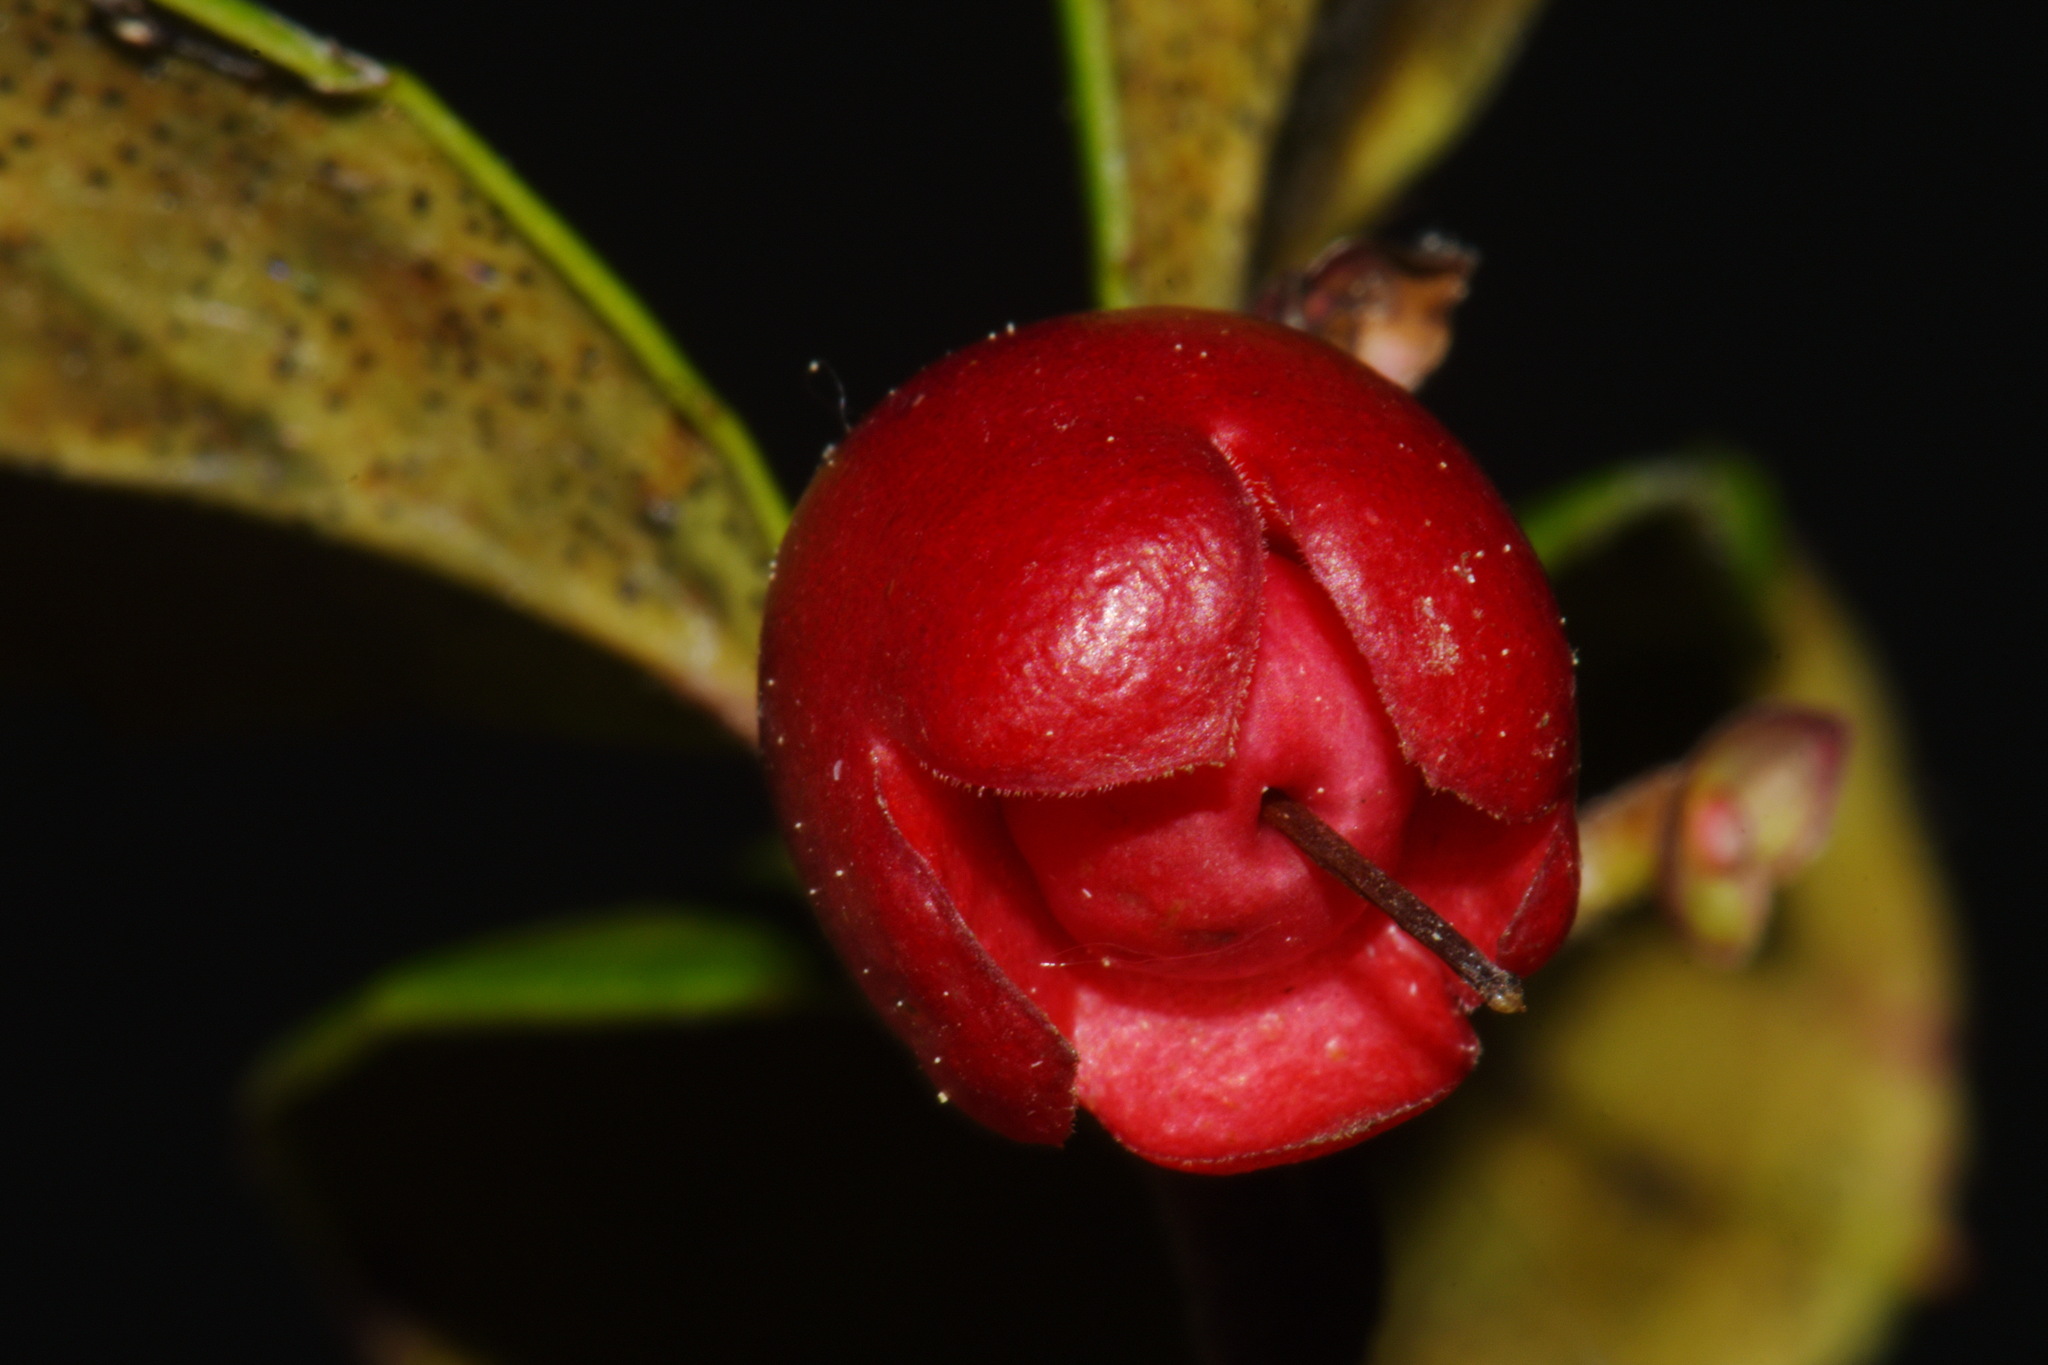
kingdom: Plantae
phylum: Tracheophyta
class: Magnoliopsida
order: Ericales
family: Ericaceae
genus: Gaultheria
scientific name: Gaultheria procumbens
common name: Checkerberry
